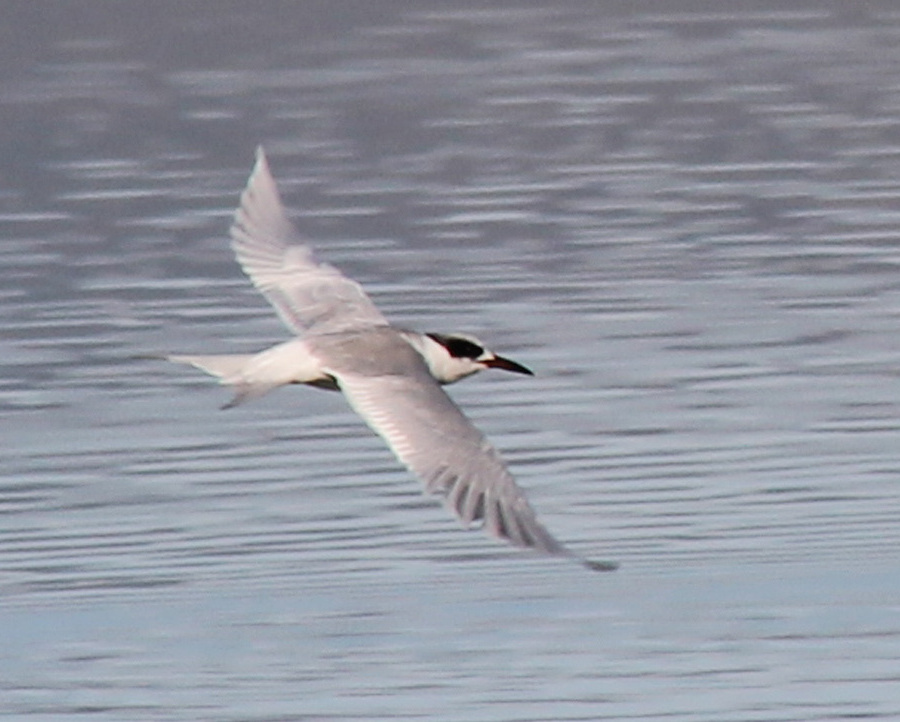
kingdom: Animalia
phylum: Chordata
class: Aves
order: Charadriiformes
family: Laridae
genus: Sterna
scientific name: Sterna forsteri
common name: Forster's tern
